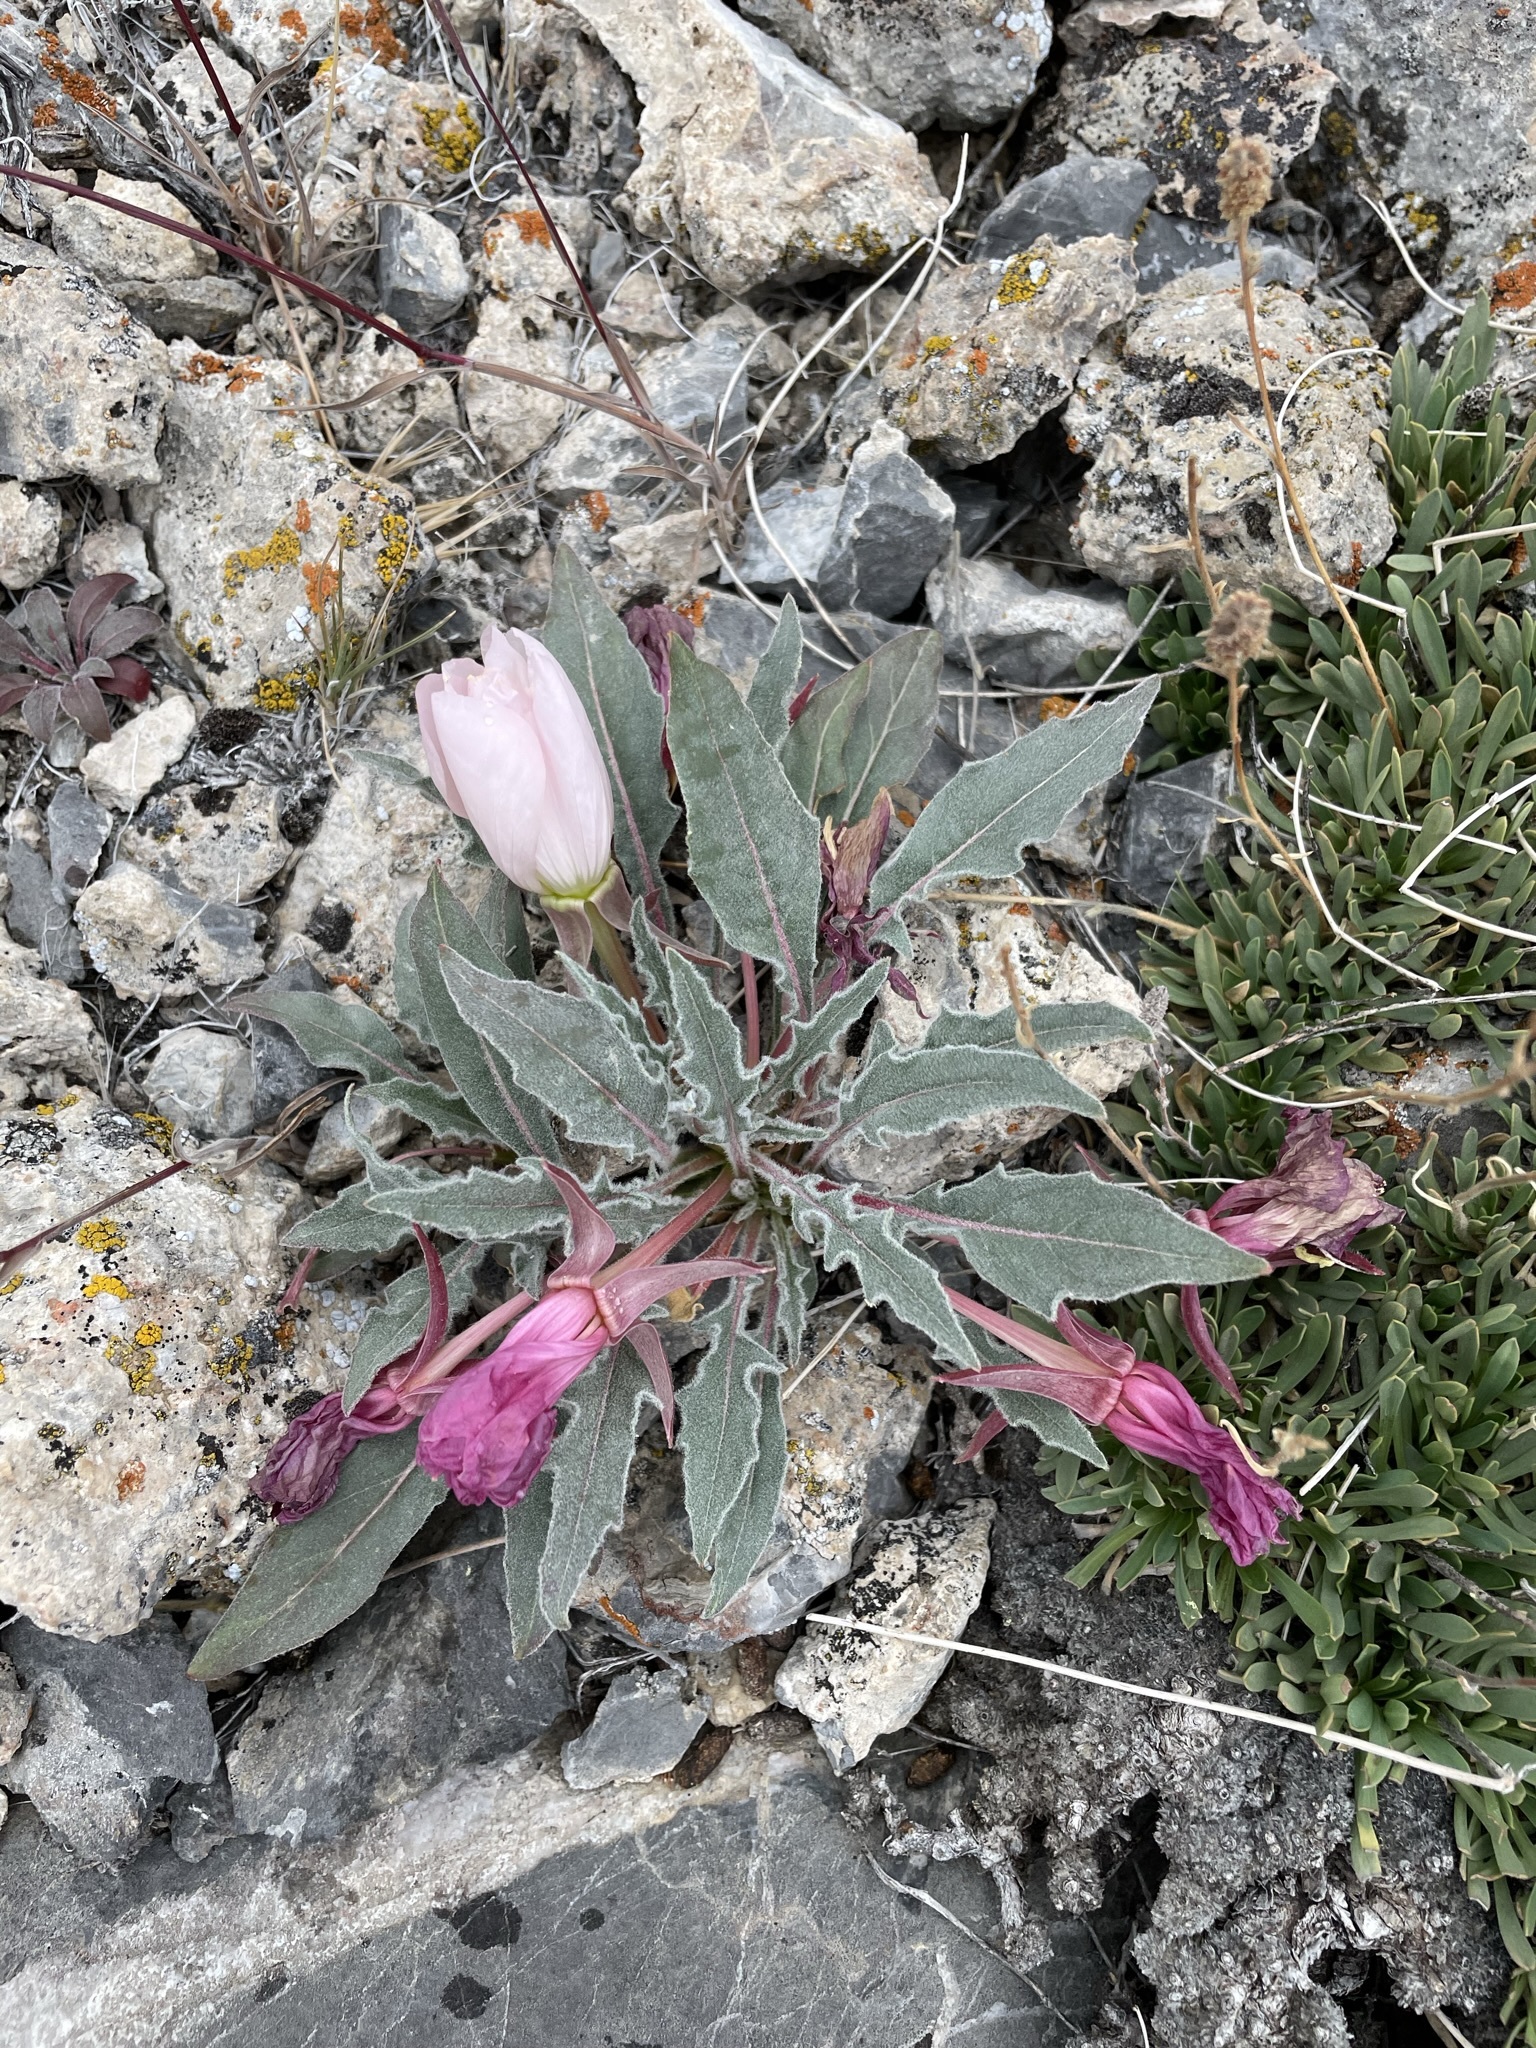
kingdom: Plantae
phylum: Tracheophyta
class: Magnoliopsida
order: Myrtales
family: Onagraceae
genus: Oenothera
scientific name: Oenothera cespitosa
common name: Tufted evening-primrose
